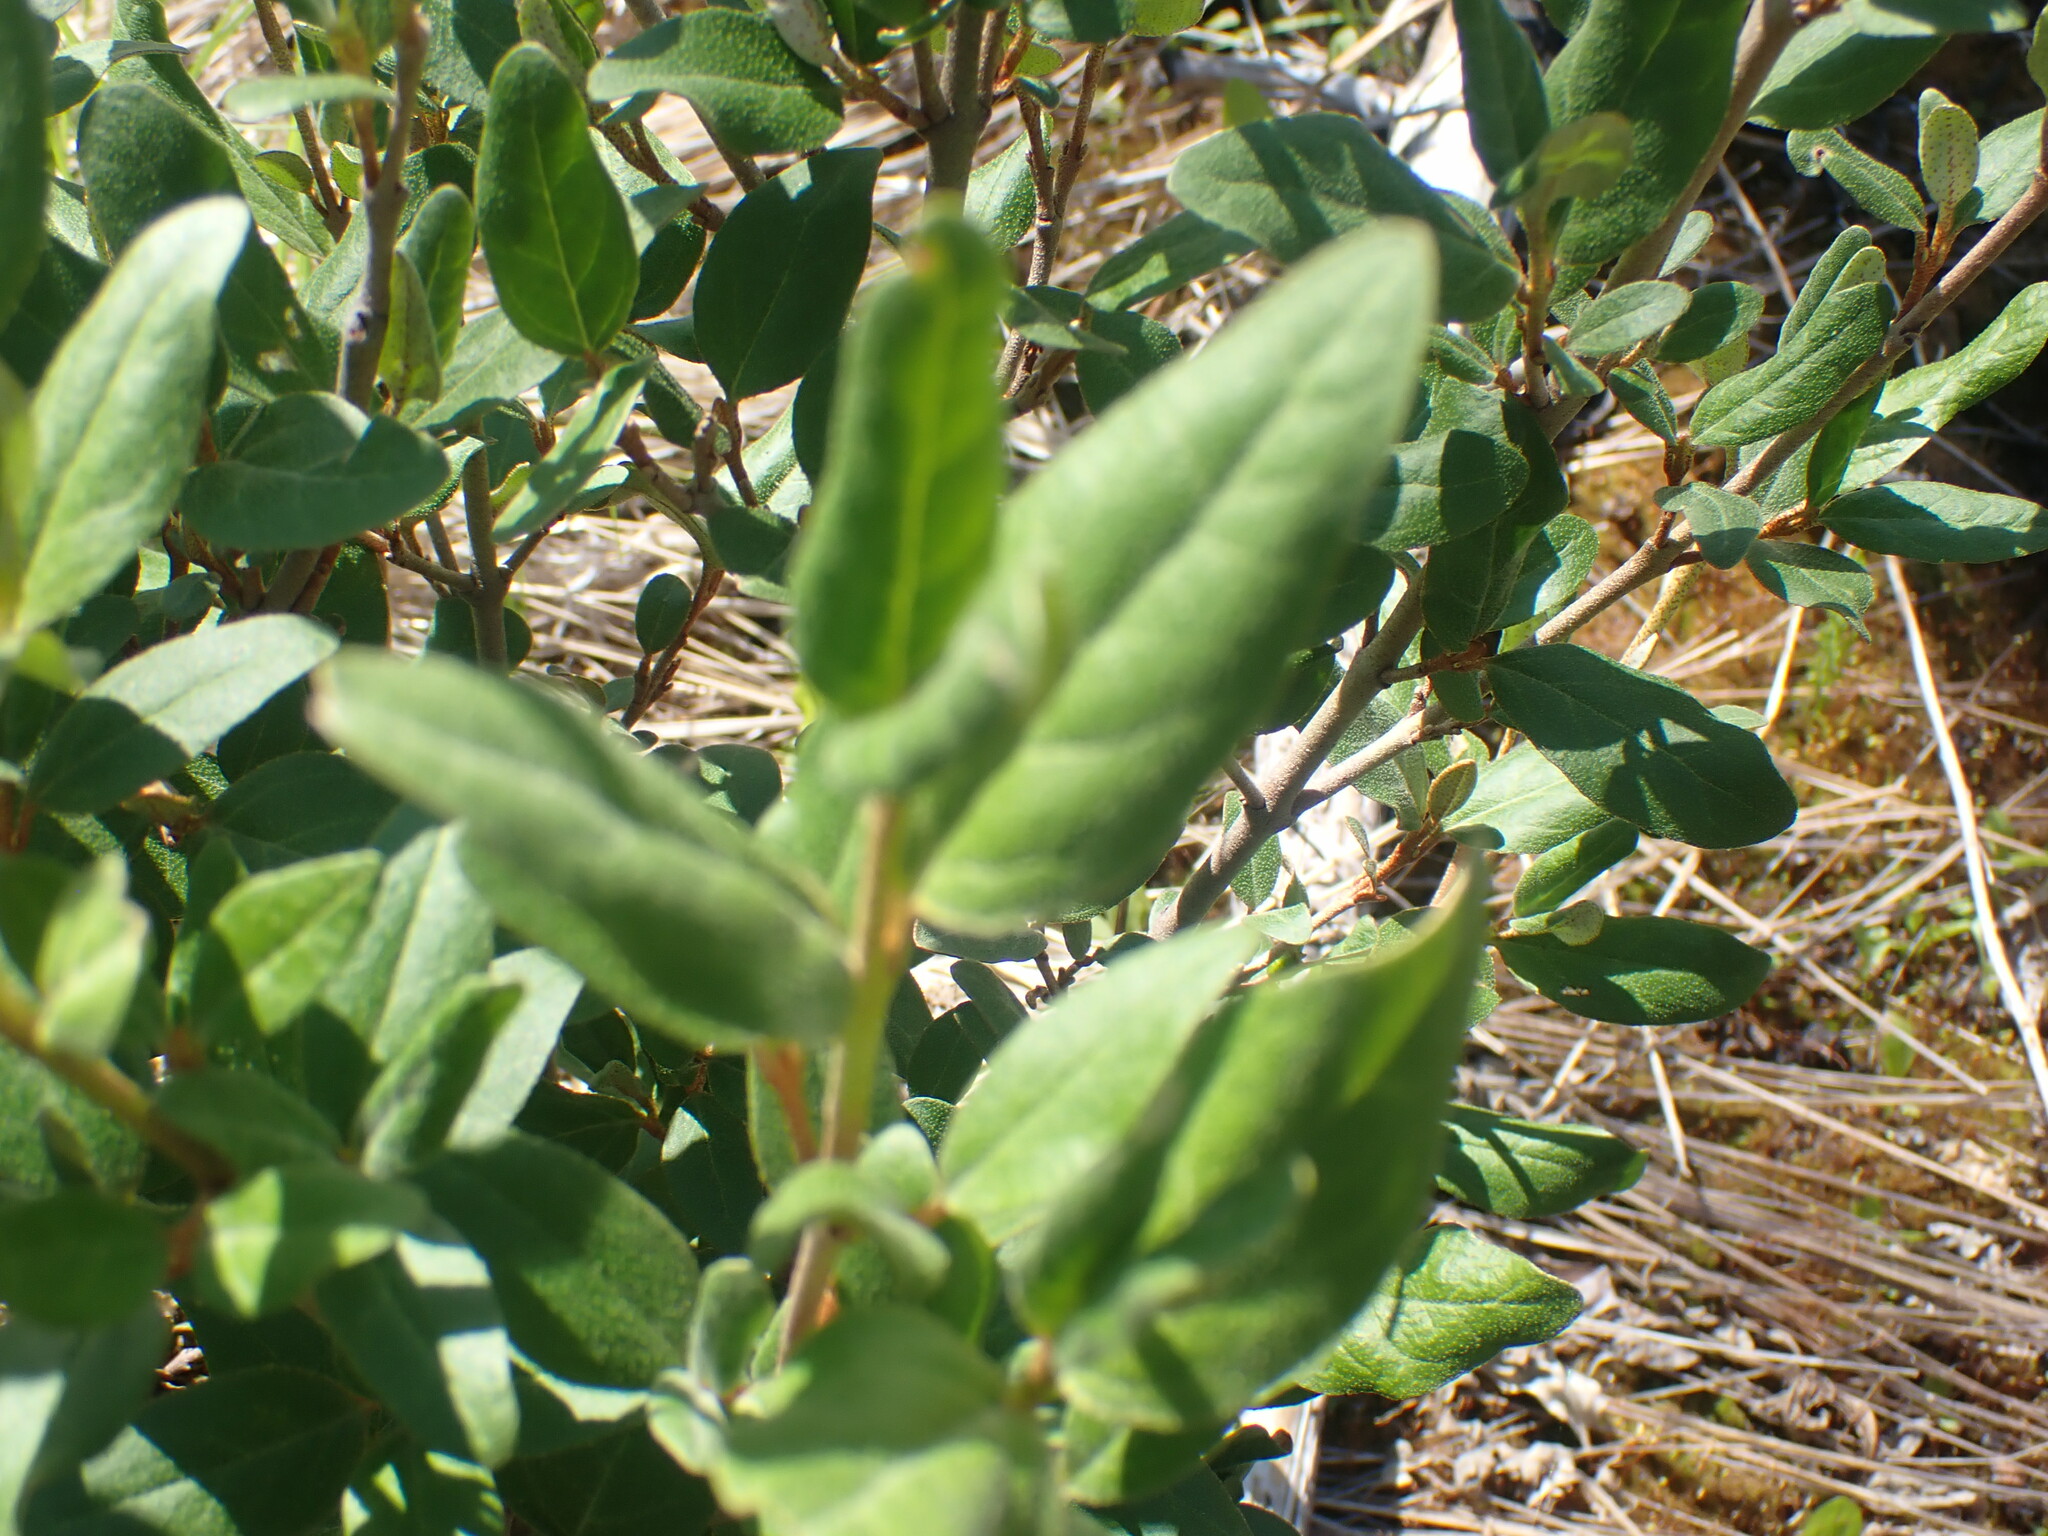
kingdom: Plantae
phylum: Tracheophyta
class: Magnoliopsida
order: Rosales
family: Elaeagnaceae
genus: Shepherdia
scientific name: Shepherdia canadensis
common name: Soapberry
